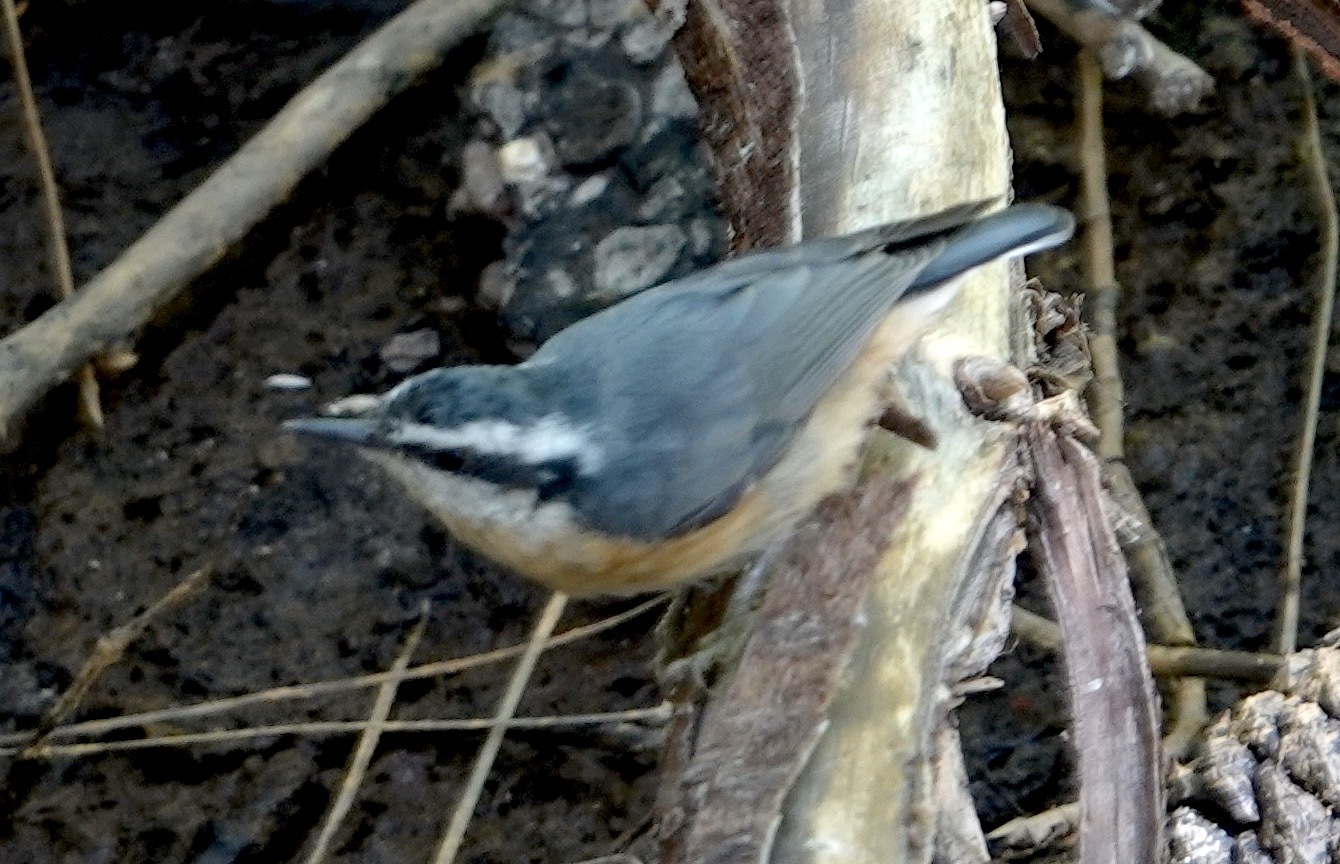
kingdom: Animalia
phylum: Chordata
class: Aves
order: Passeriformes
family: Sittidae
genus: Sitta
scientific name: Sitta canadensis
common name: Red-breasted nuthatch
